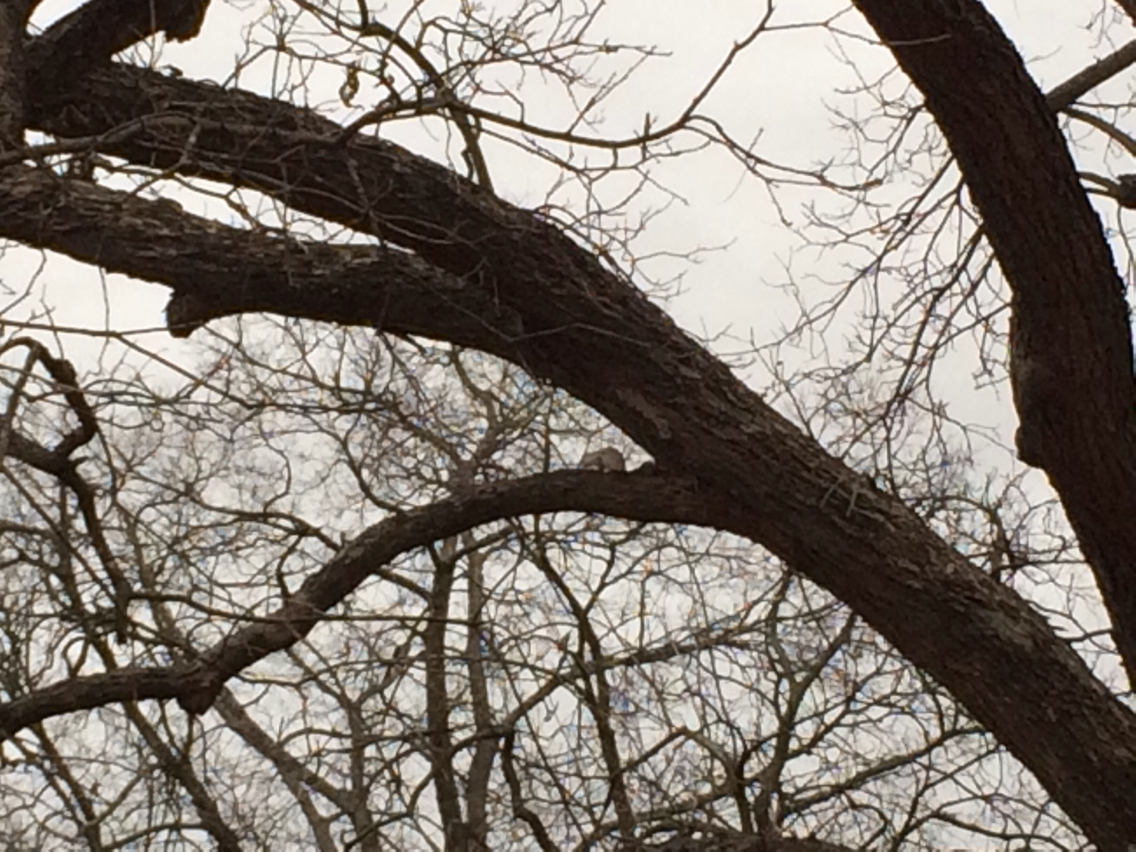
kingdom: Animalia
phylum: Chordata
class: Mammalia
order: Rodentia
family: Sciuridae
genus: Sciurus
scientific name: Sciurus niger
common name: Fox squirrel
